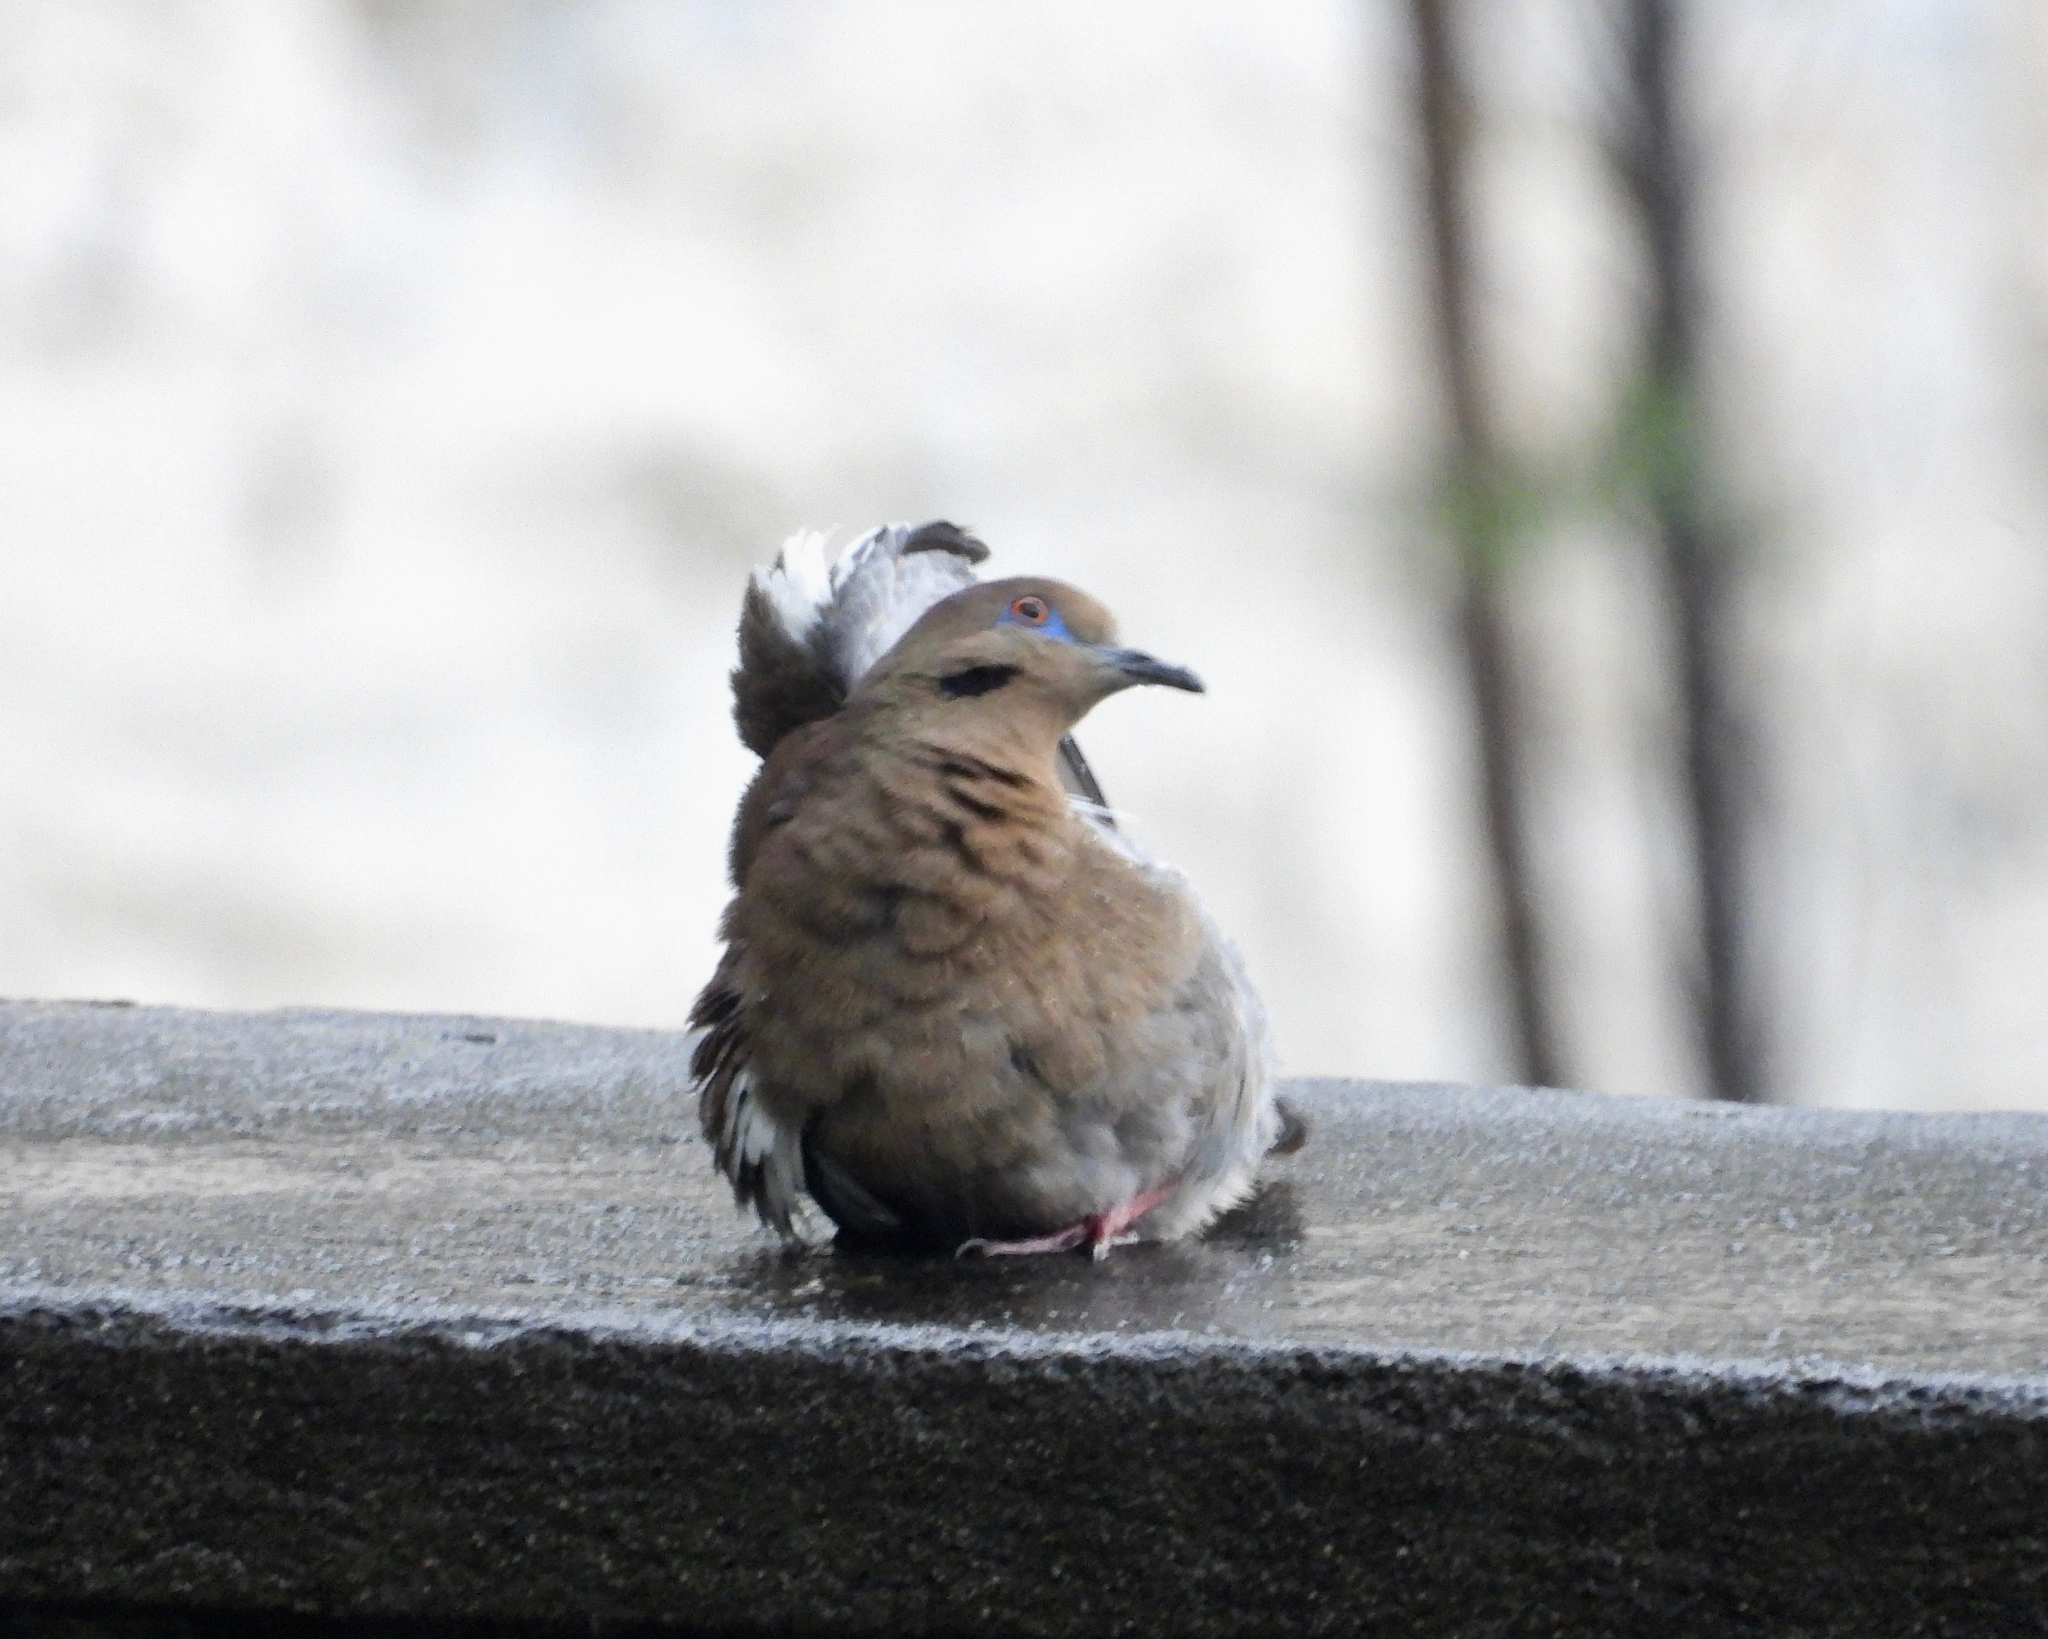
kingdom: Animalia
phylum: Chordata
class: Aves
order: Columbiformes
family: Columbidae
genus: Zenaida
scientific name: Zenaida asiatica
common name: White-winged dove
